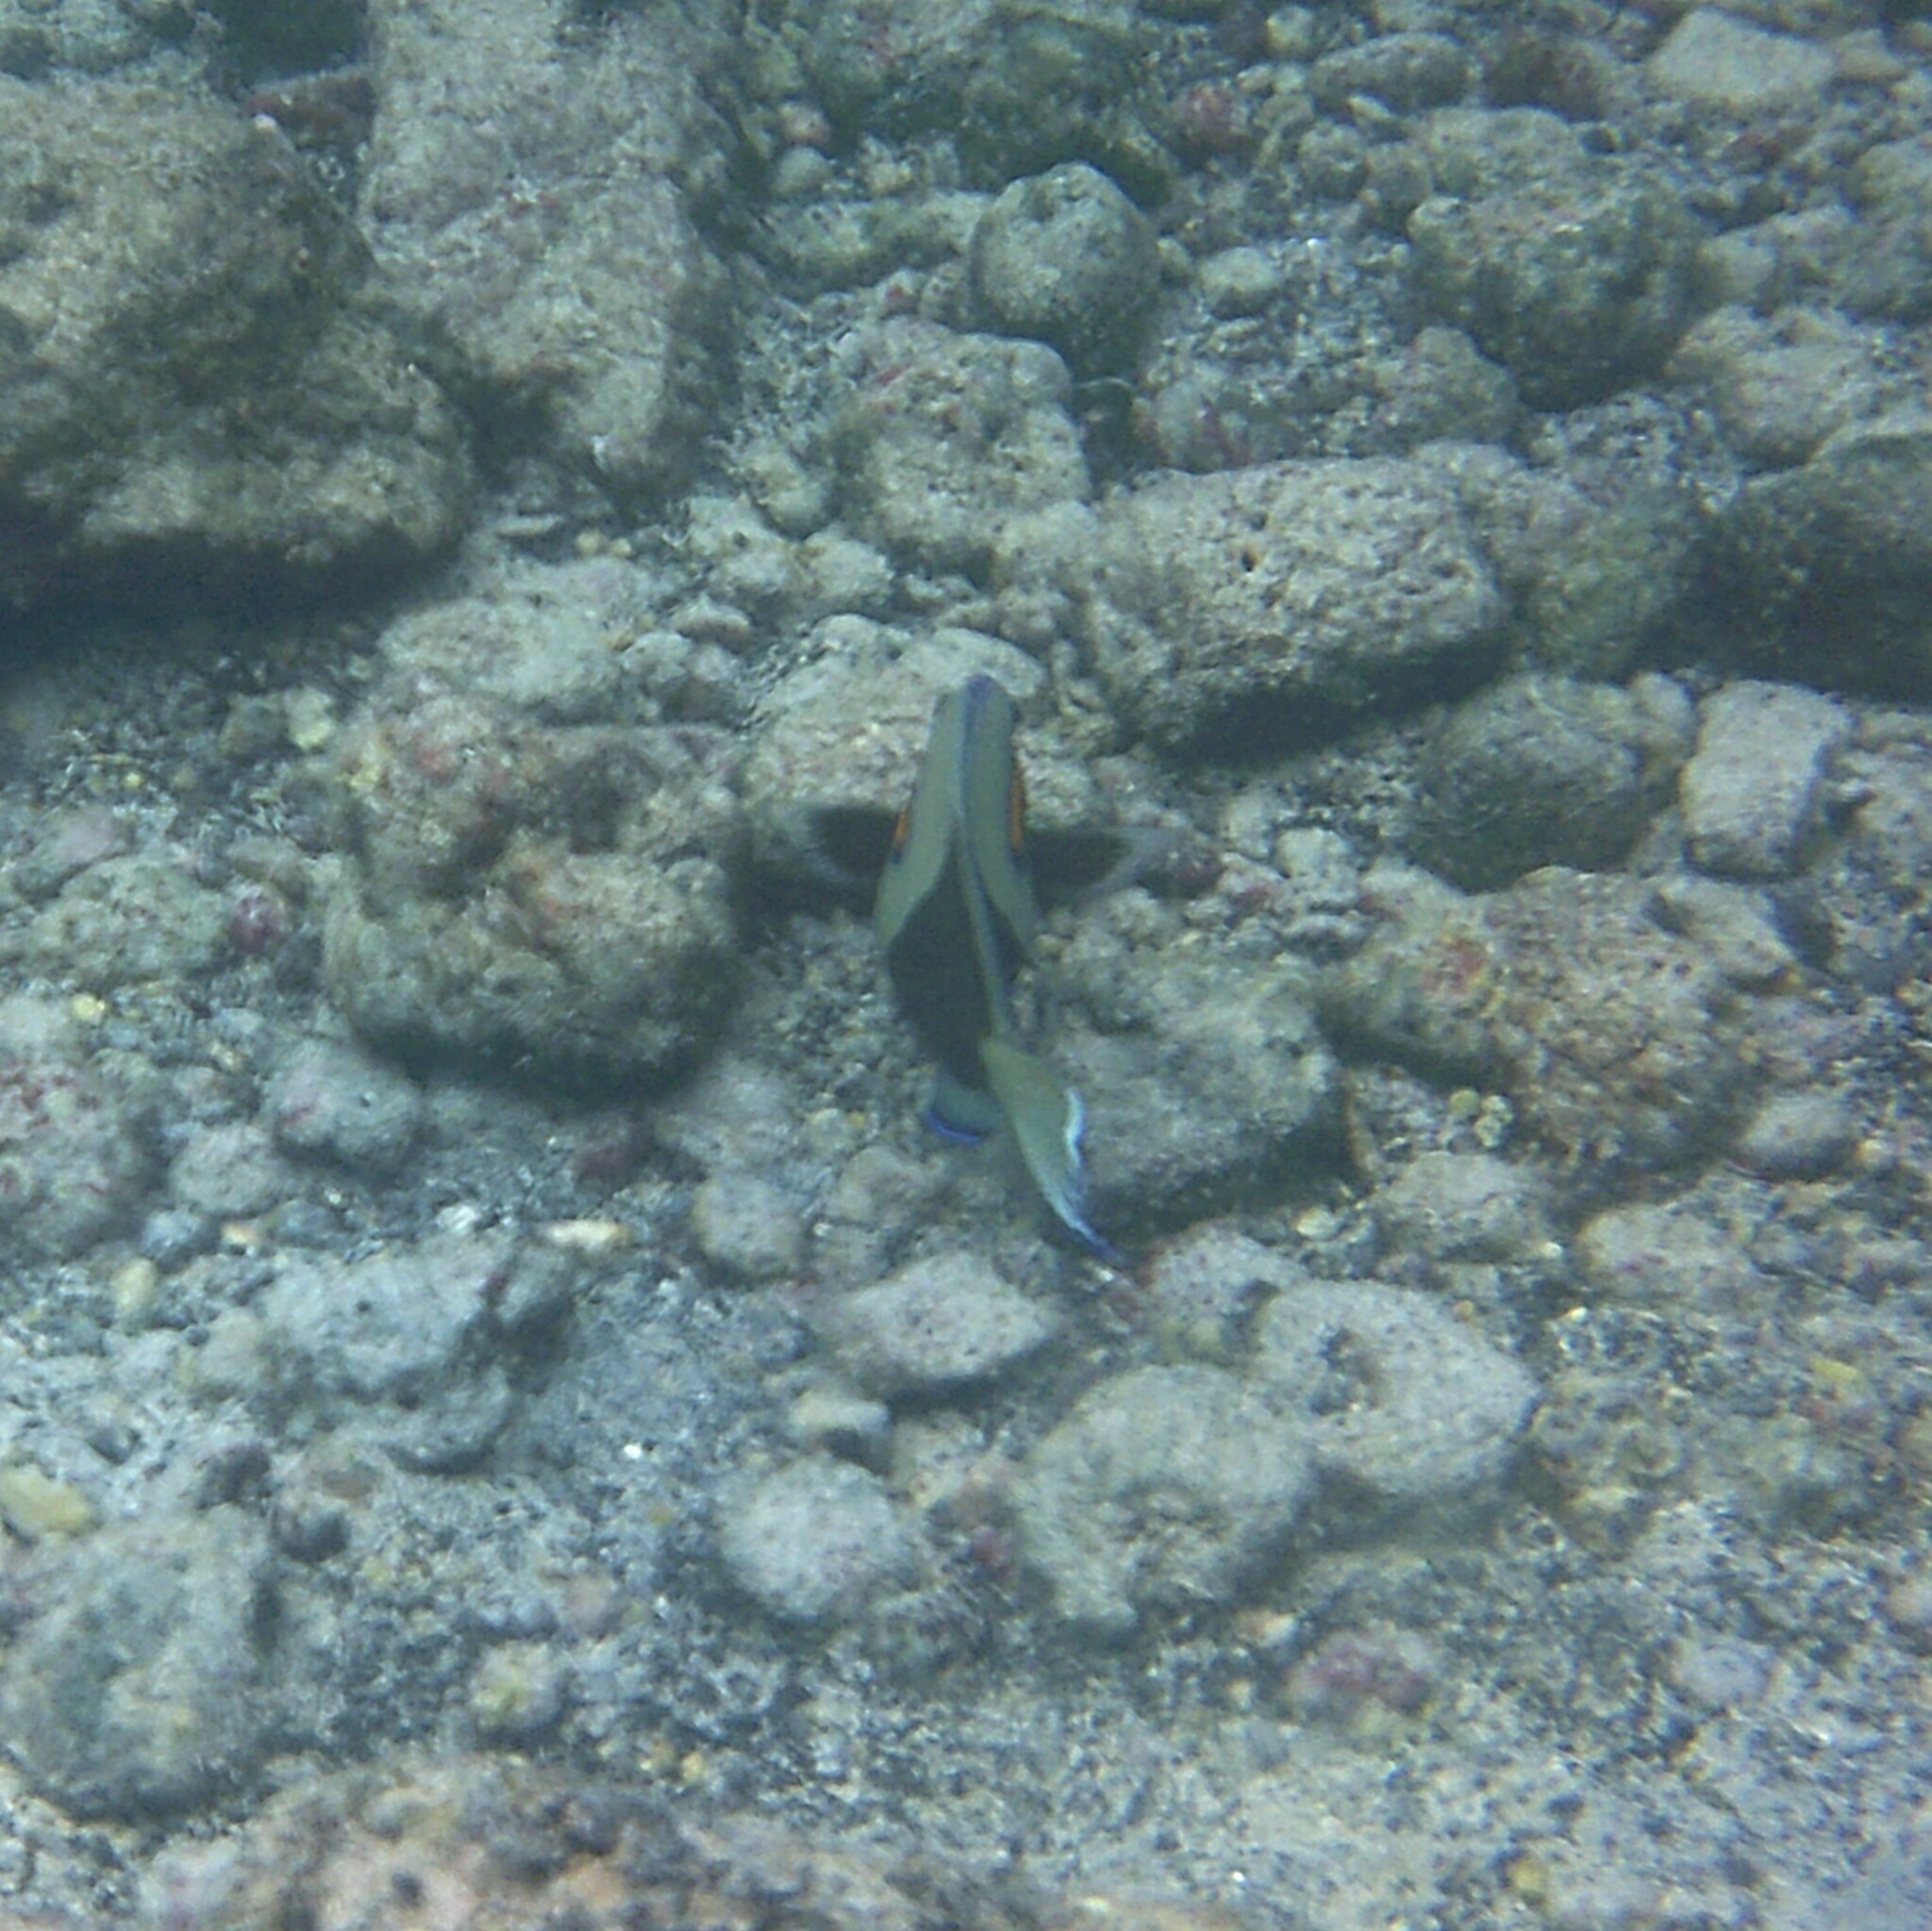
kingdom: Animalia
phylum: Chordata
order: Perciformes
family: Acanthuridae
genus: Acanthurus
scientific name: Acanthurus olivaceus
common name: Gendarme fish
